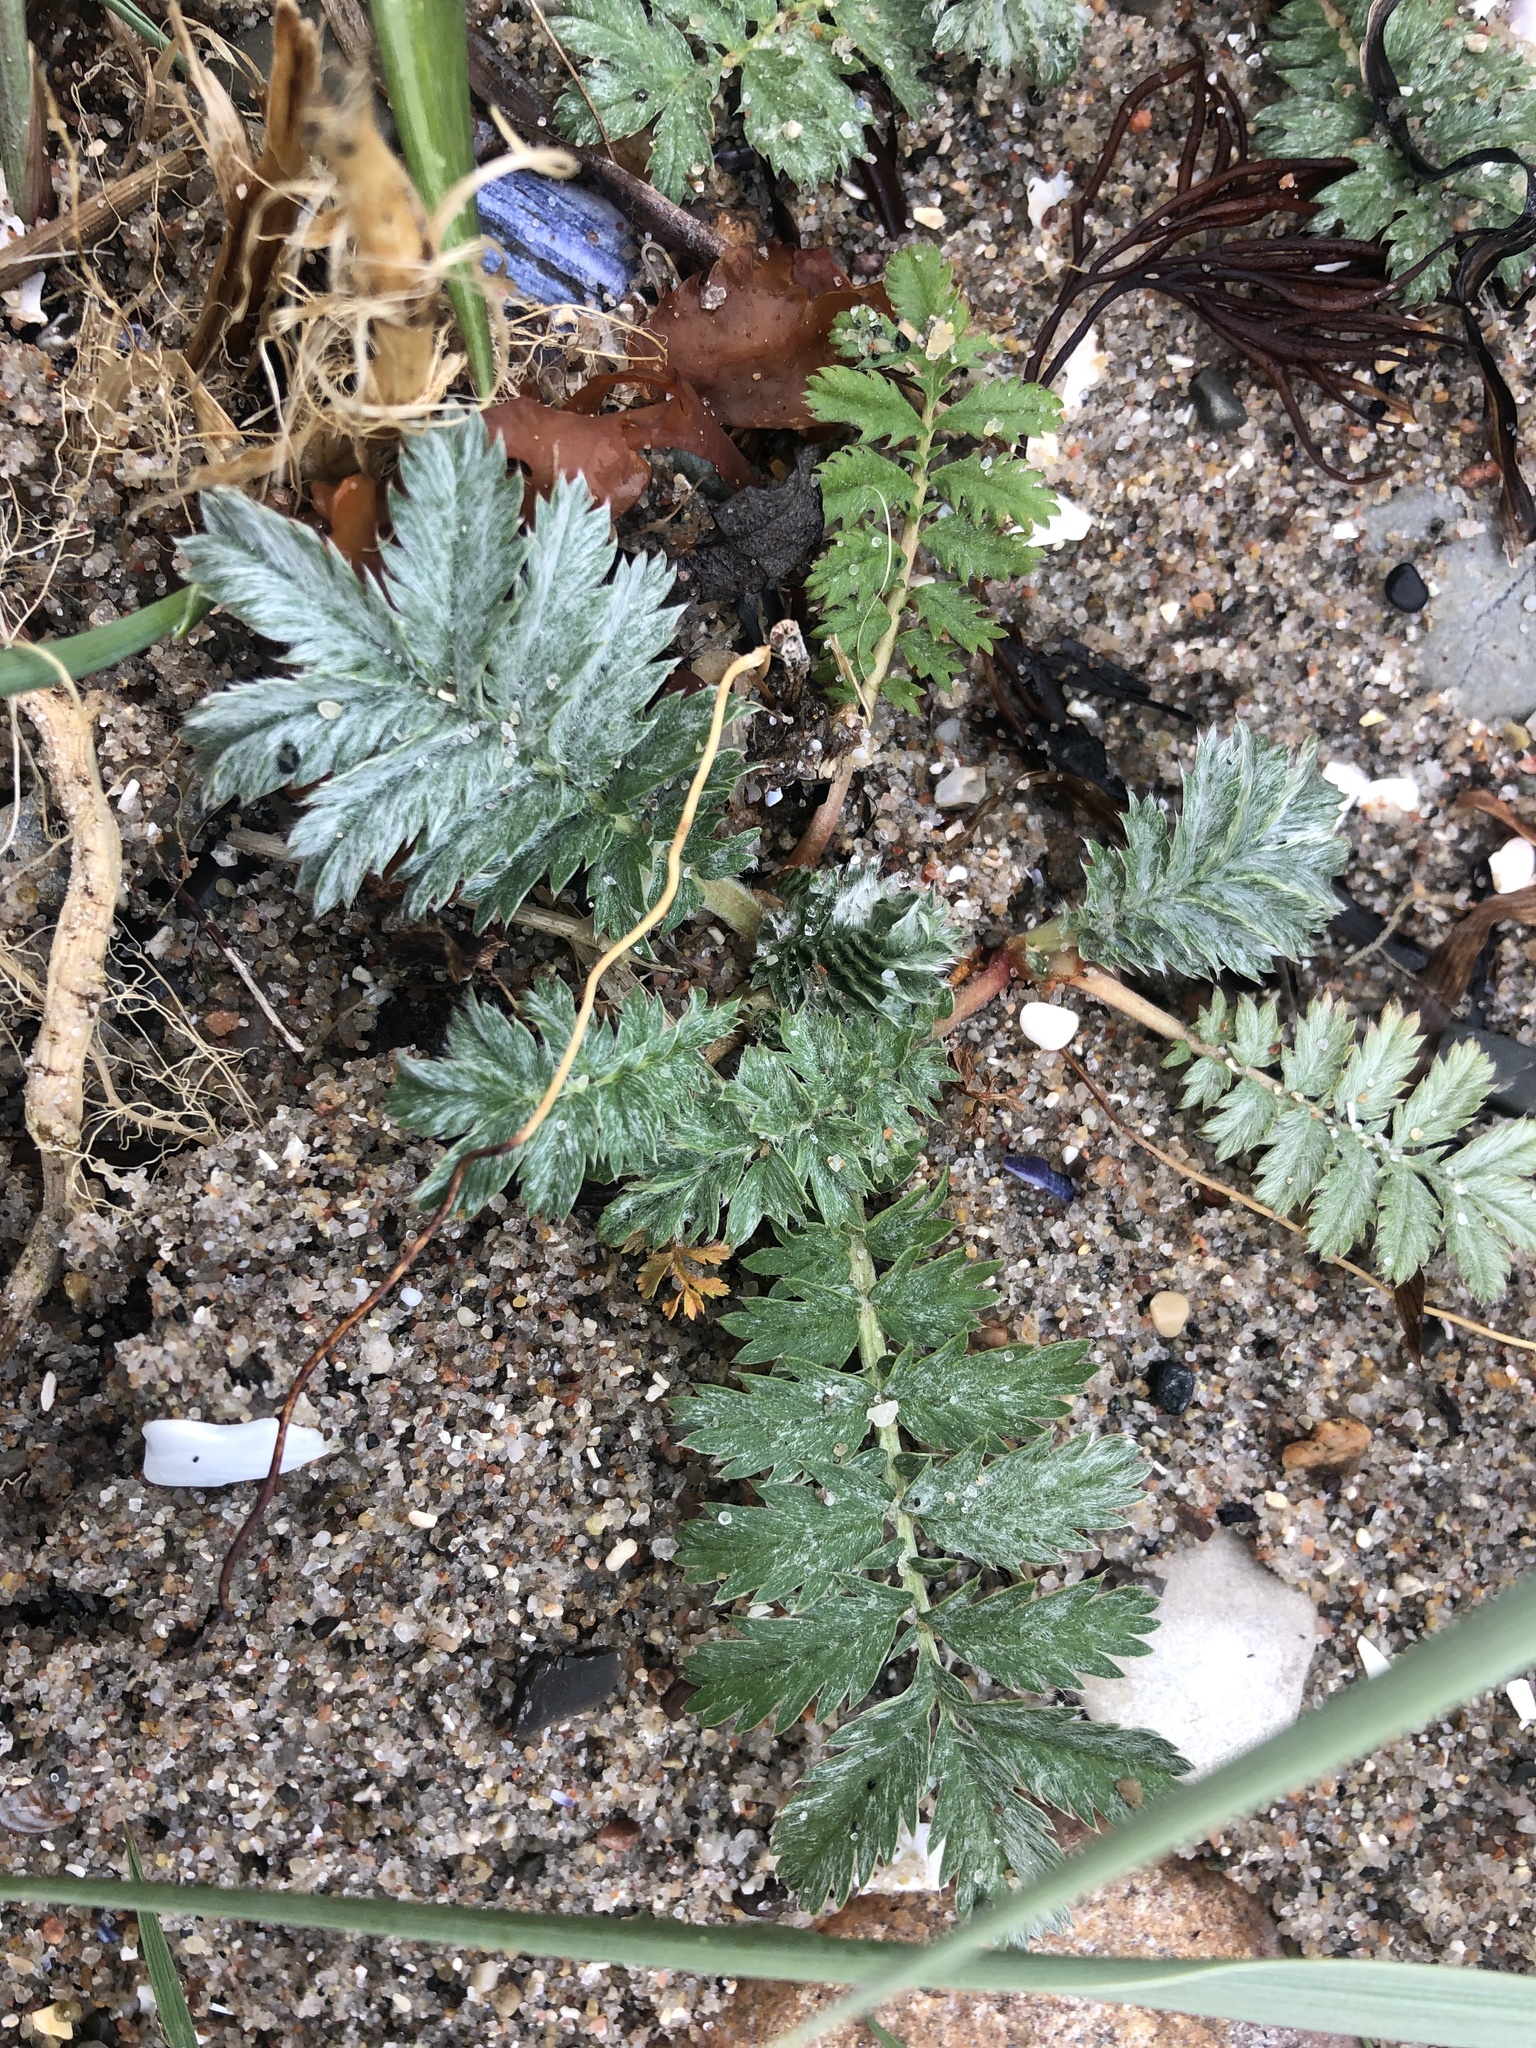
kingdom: Plantae
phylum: Tracheophyta
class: Magnoliopsida
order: Rosales
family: Rosaceae
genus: Argentina
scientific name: Argentina anserina
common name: Common silverweed
